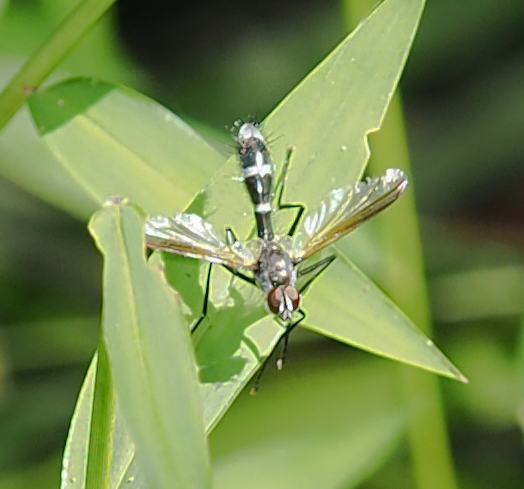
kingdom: Animalia
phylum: Arthropoda
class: Insecta
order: Diptera
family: Tachinidae
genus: Cordyligaster
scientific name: Cordyligaster septentrionalis
